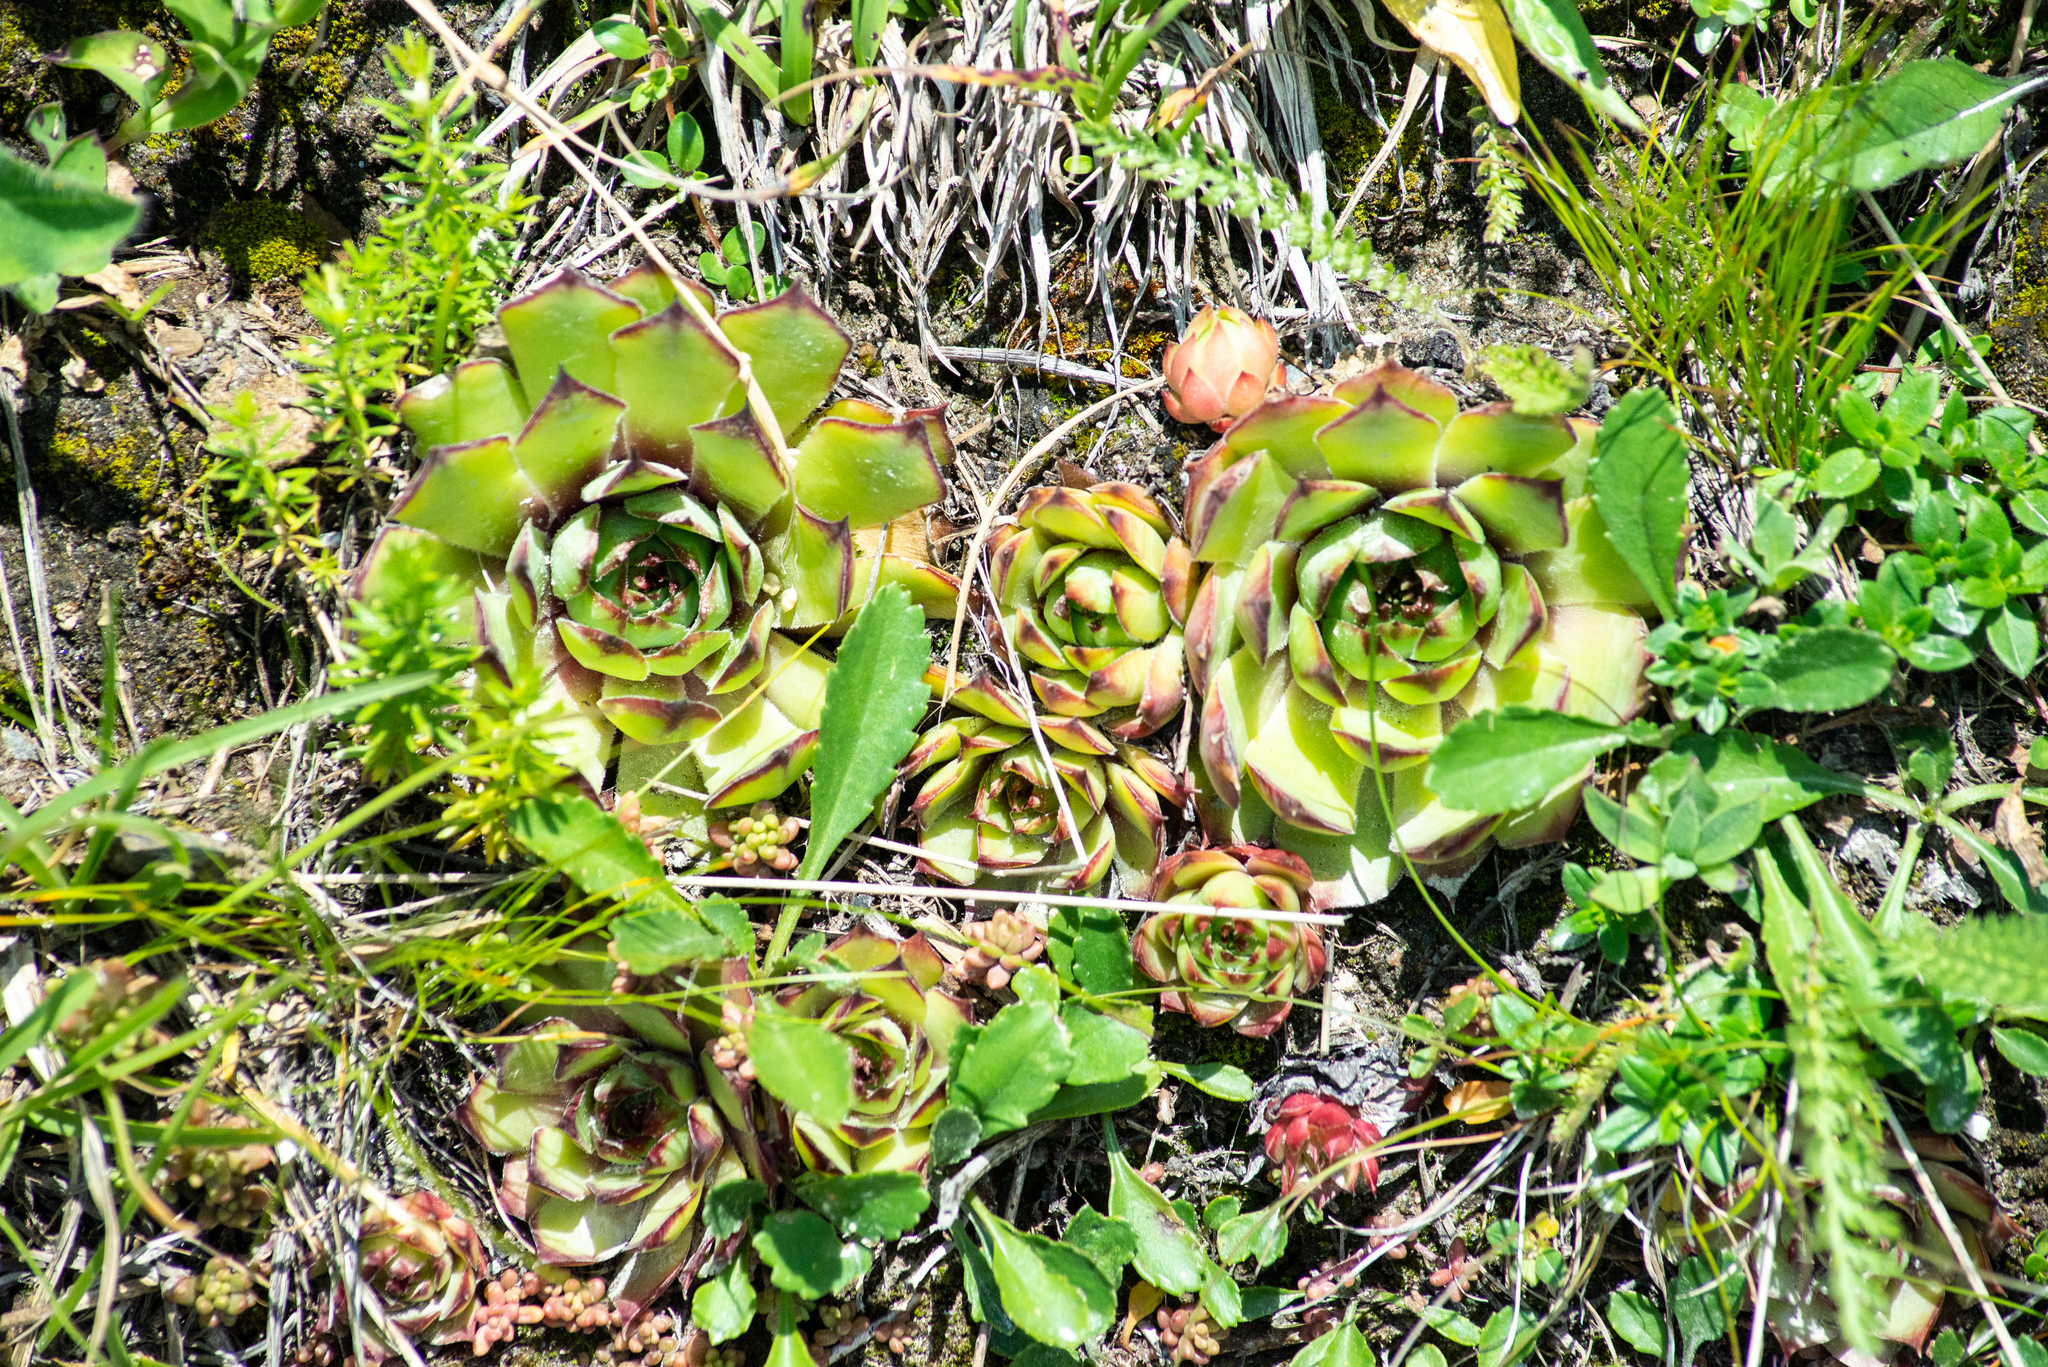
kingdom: Plantae
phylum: Tracheophyta
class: Magnoliopsida
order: Saxifragales
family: Crassulaceae
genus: Sempervivum
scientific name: Sempervivum tectorum
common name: House-leek
